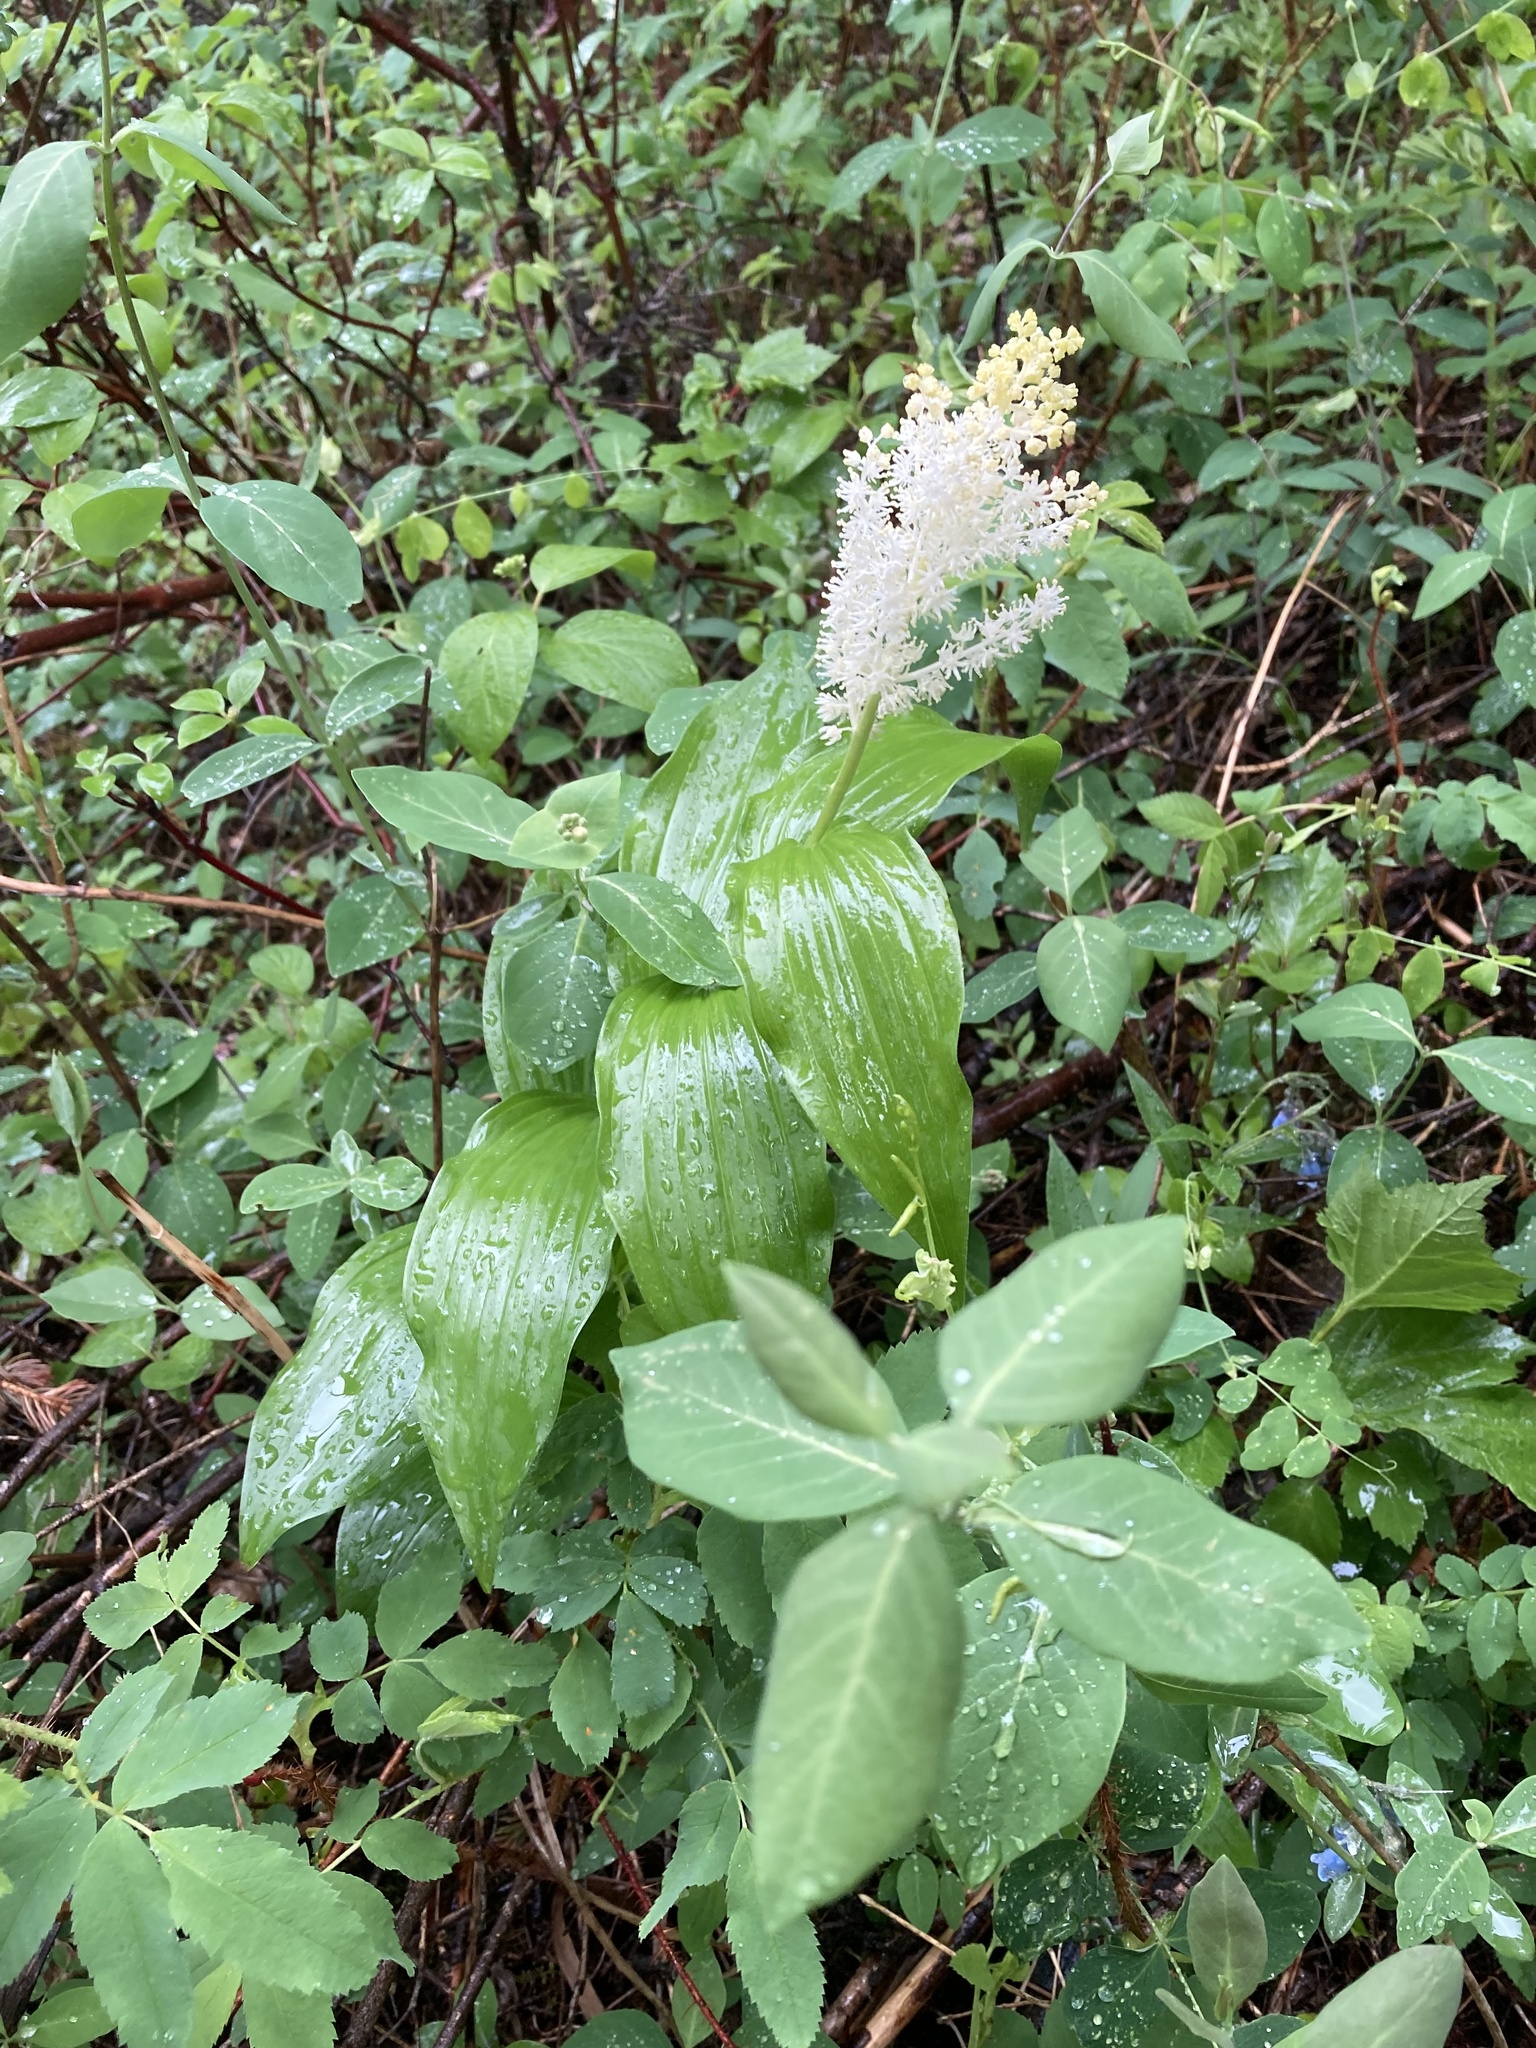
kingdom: Plantae
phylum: Tracheophyta
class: Liliopsida
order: Asparagales
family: Asparagaceae
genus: Maianthemum
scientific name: Maianthemum racemosum
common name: False spikenard
